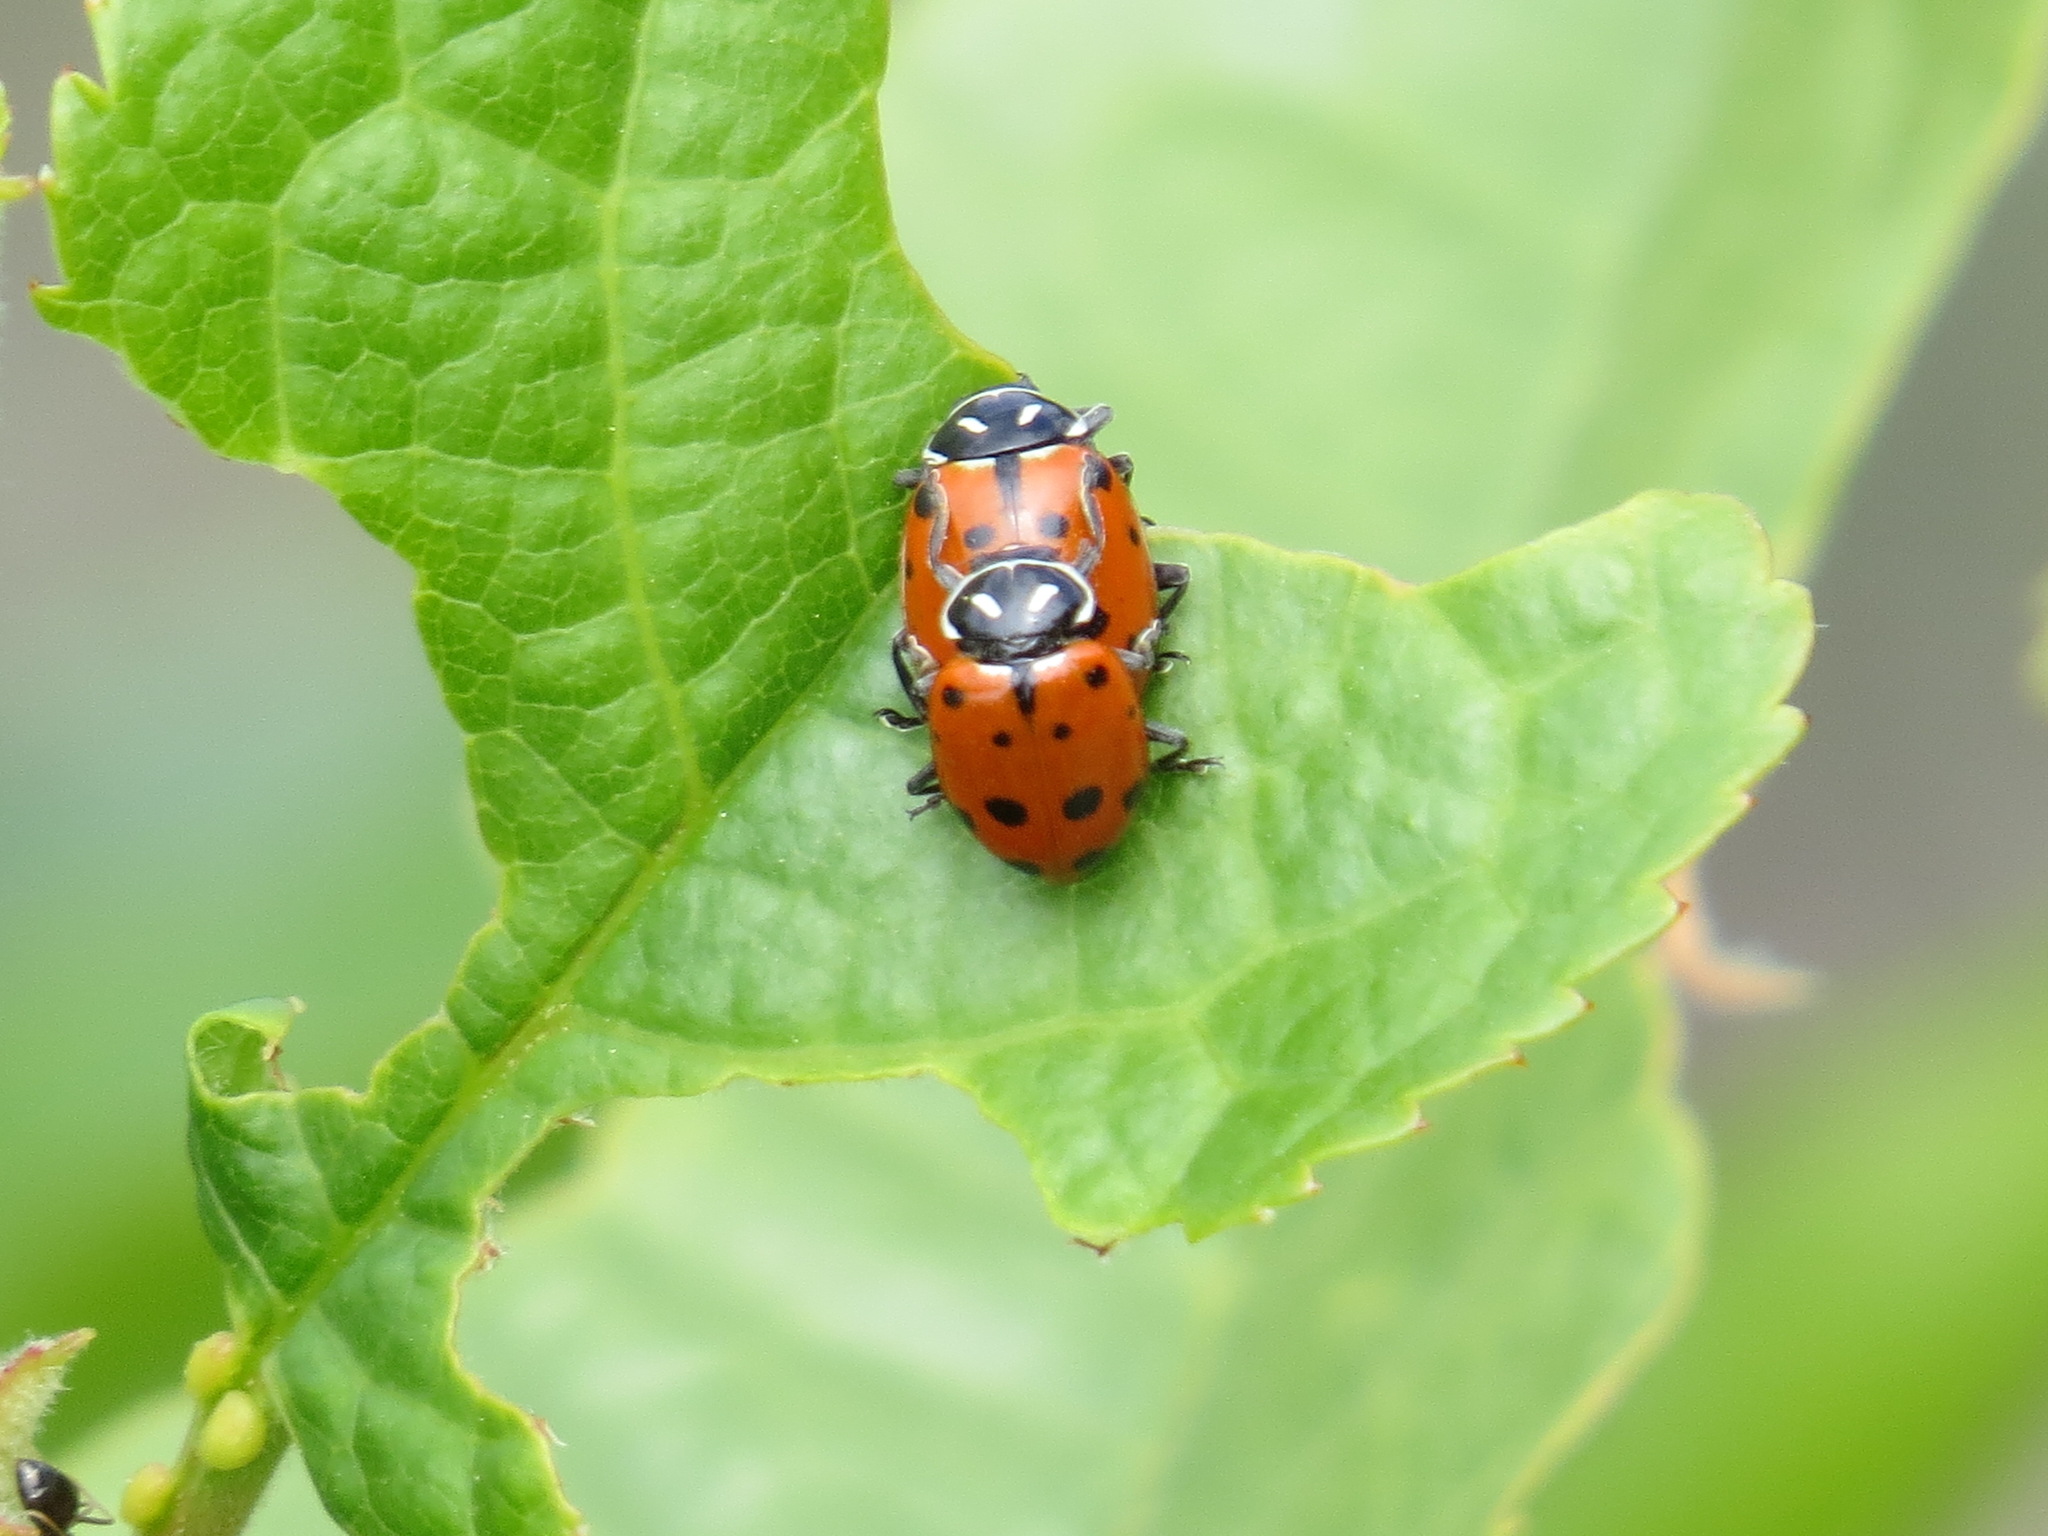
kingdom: Animalia
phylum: Arthropoda
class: Insecta
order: Coleoptera
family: Coccinellidae
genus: Hippodamia
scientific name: Hippodamia convergens
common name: Convergent lady beetle
